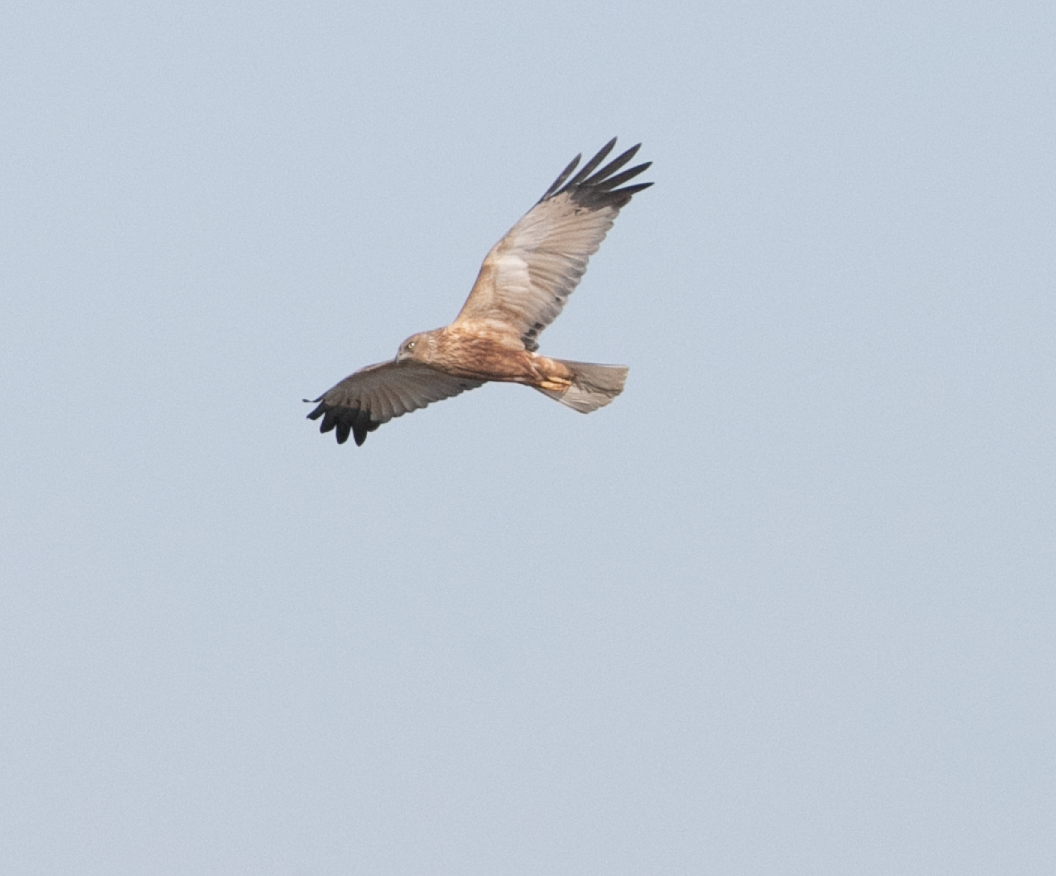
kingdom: Animalia
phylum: Chordata
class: Aves
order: Accipitriformes
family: Accipitridae
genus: Circus
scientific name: Circus aeruginosus
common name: Western marsh harrier
